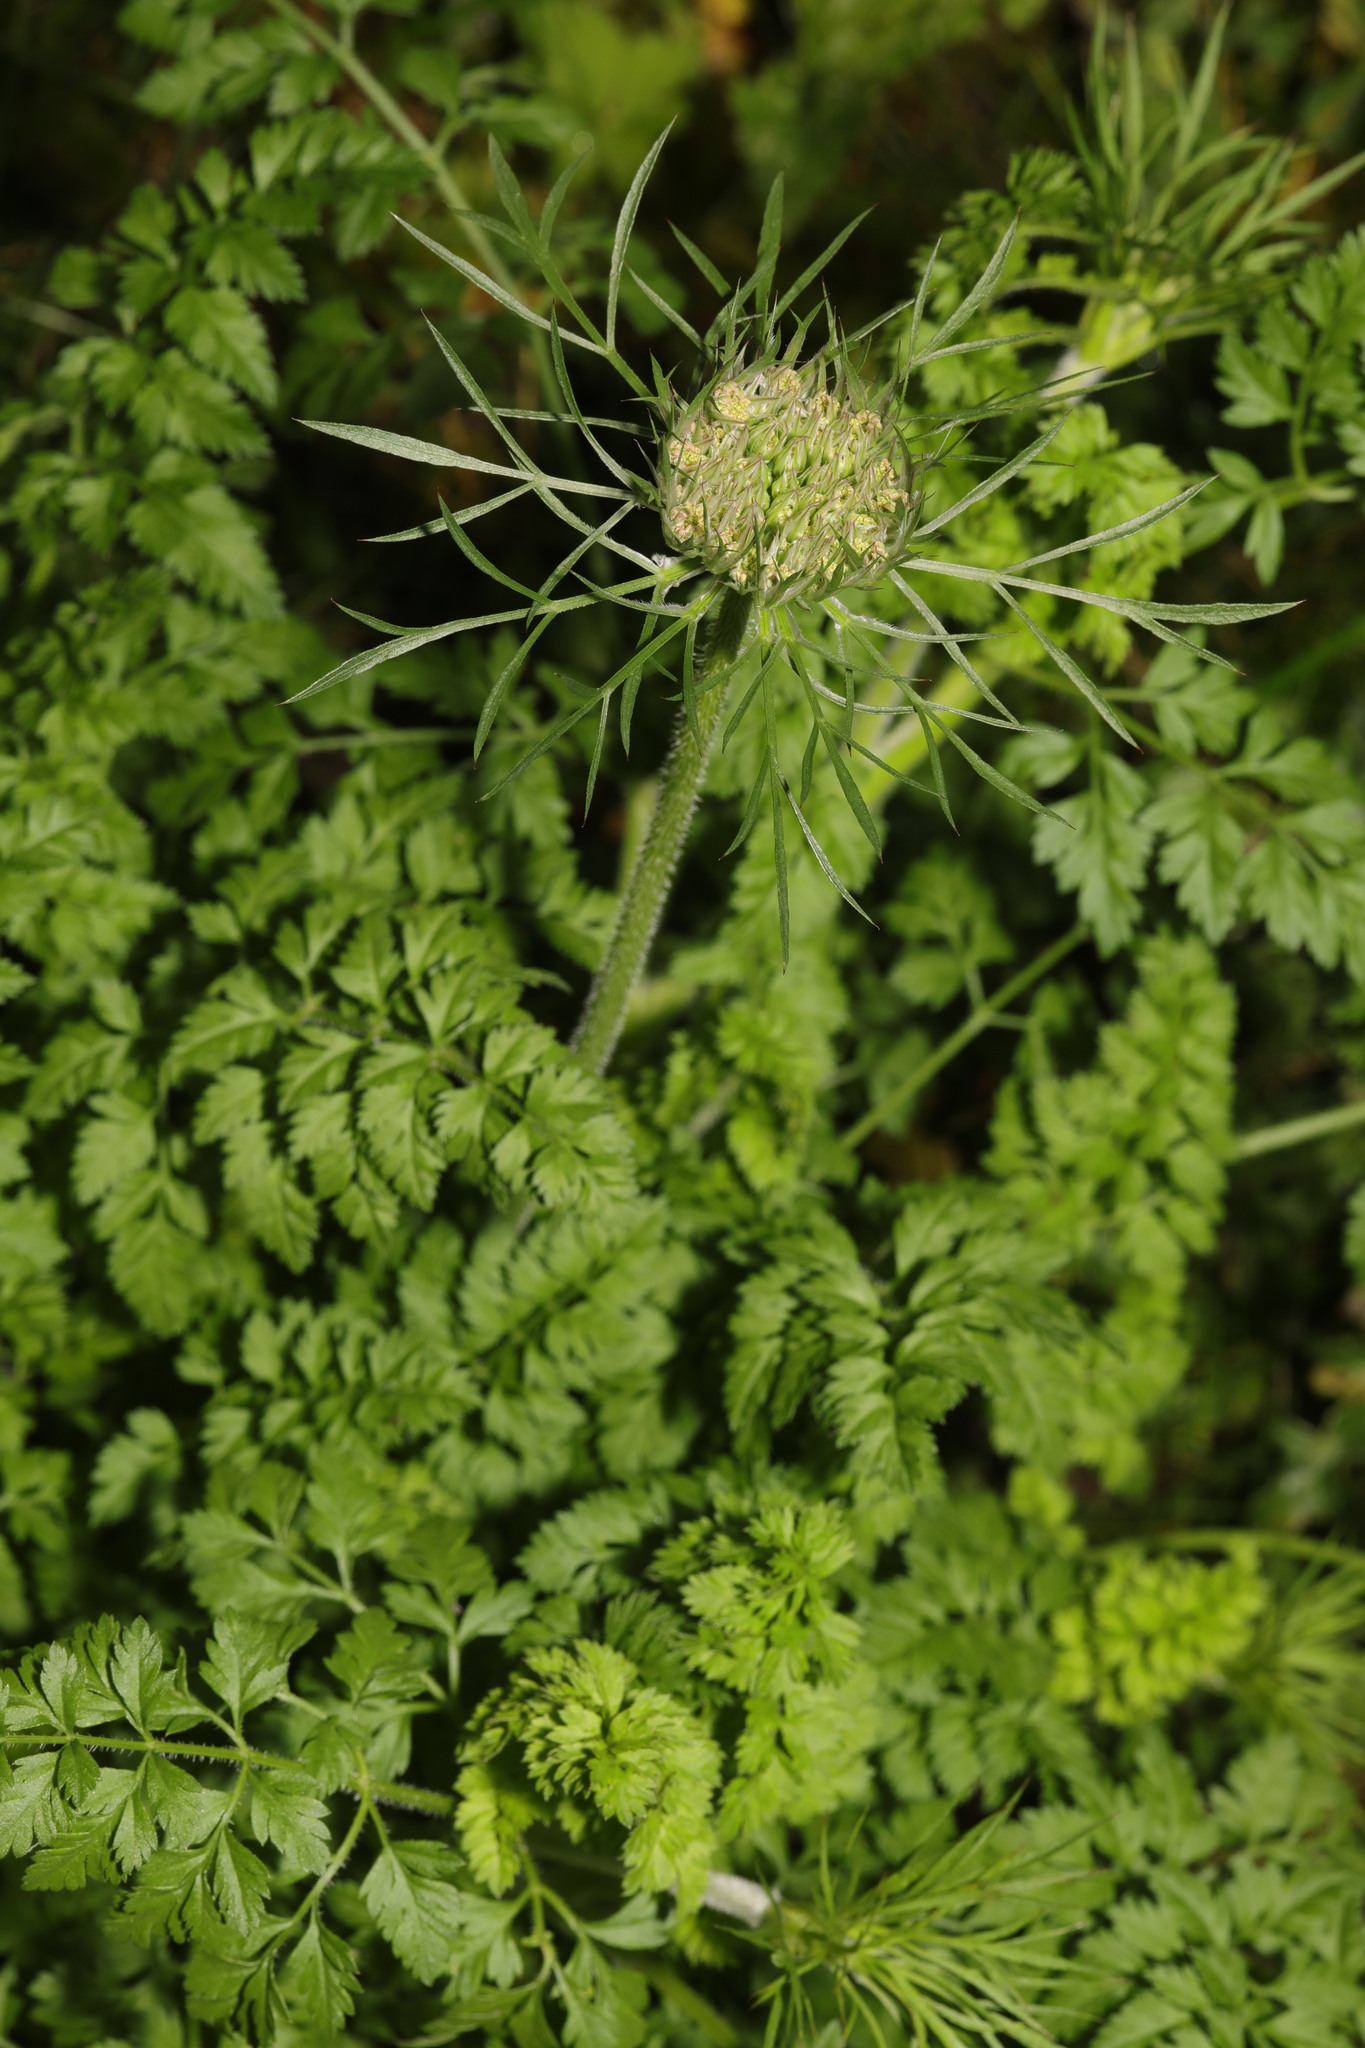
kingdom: Plantae
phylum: Tracheophyta
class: Magnoliopsida
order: Apiales
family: Apiaceae
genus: Daucus
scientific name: Daucus carota
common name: Wild carrot
